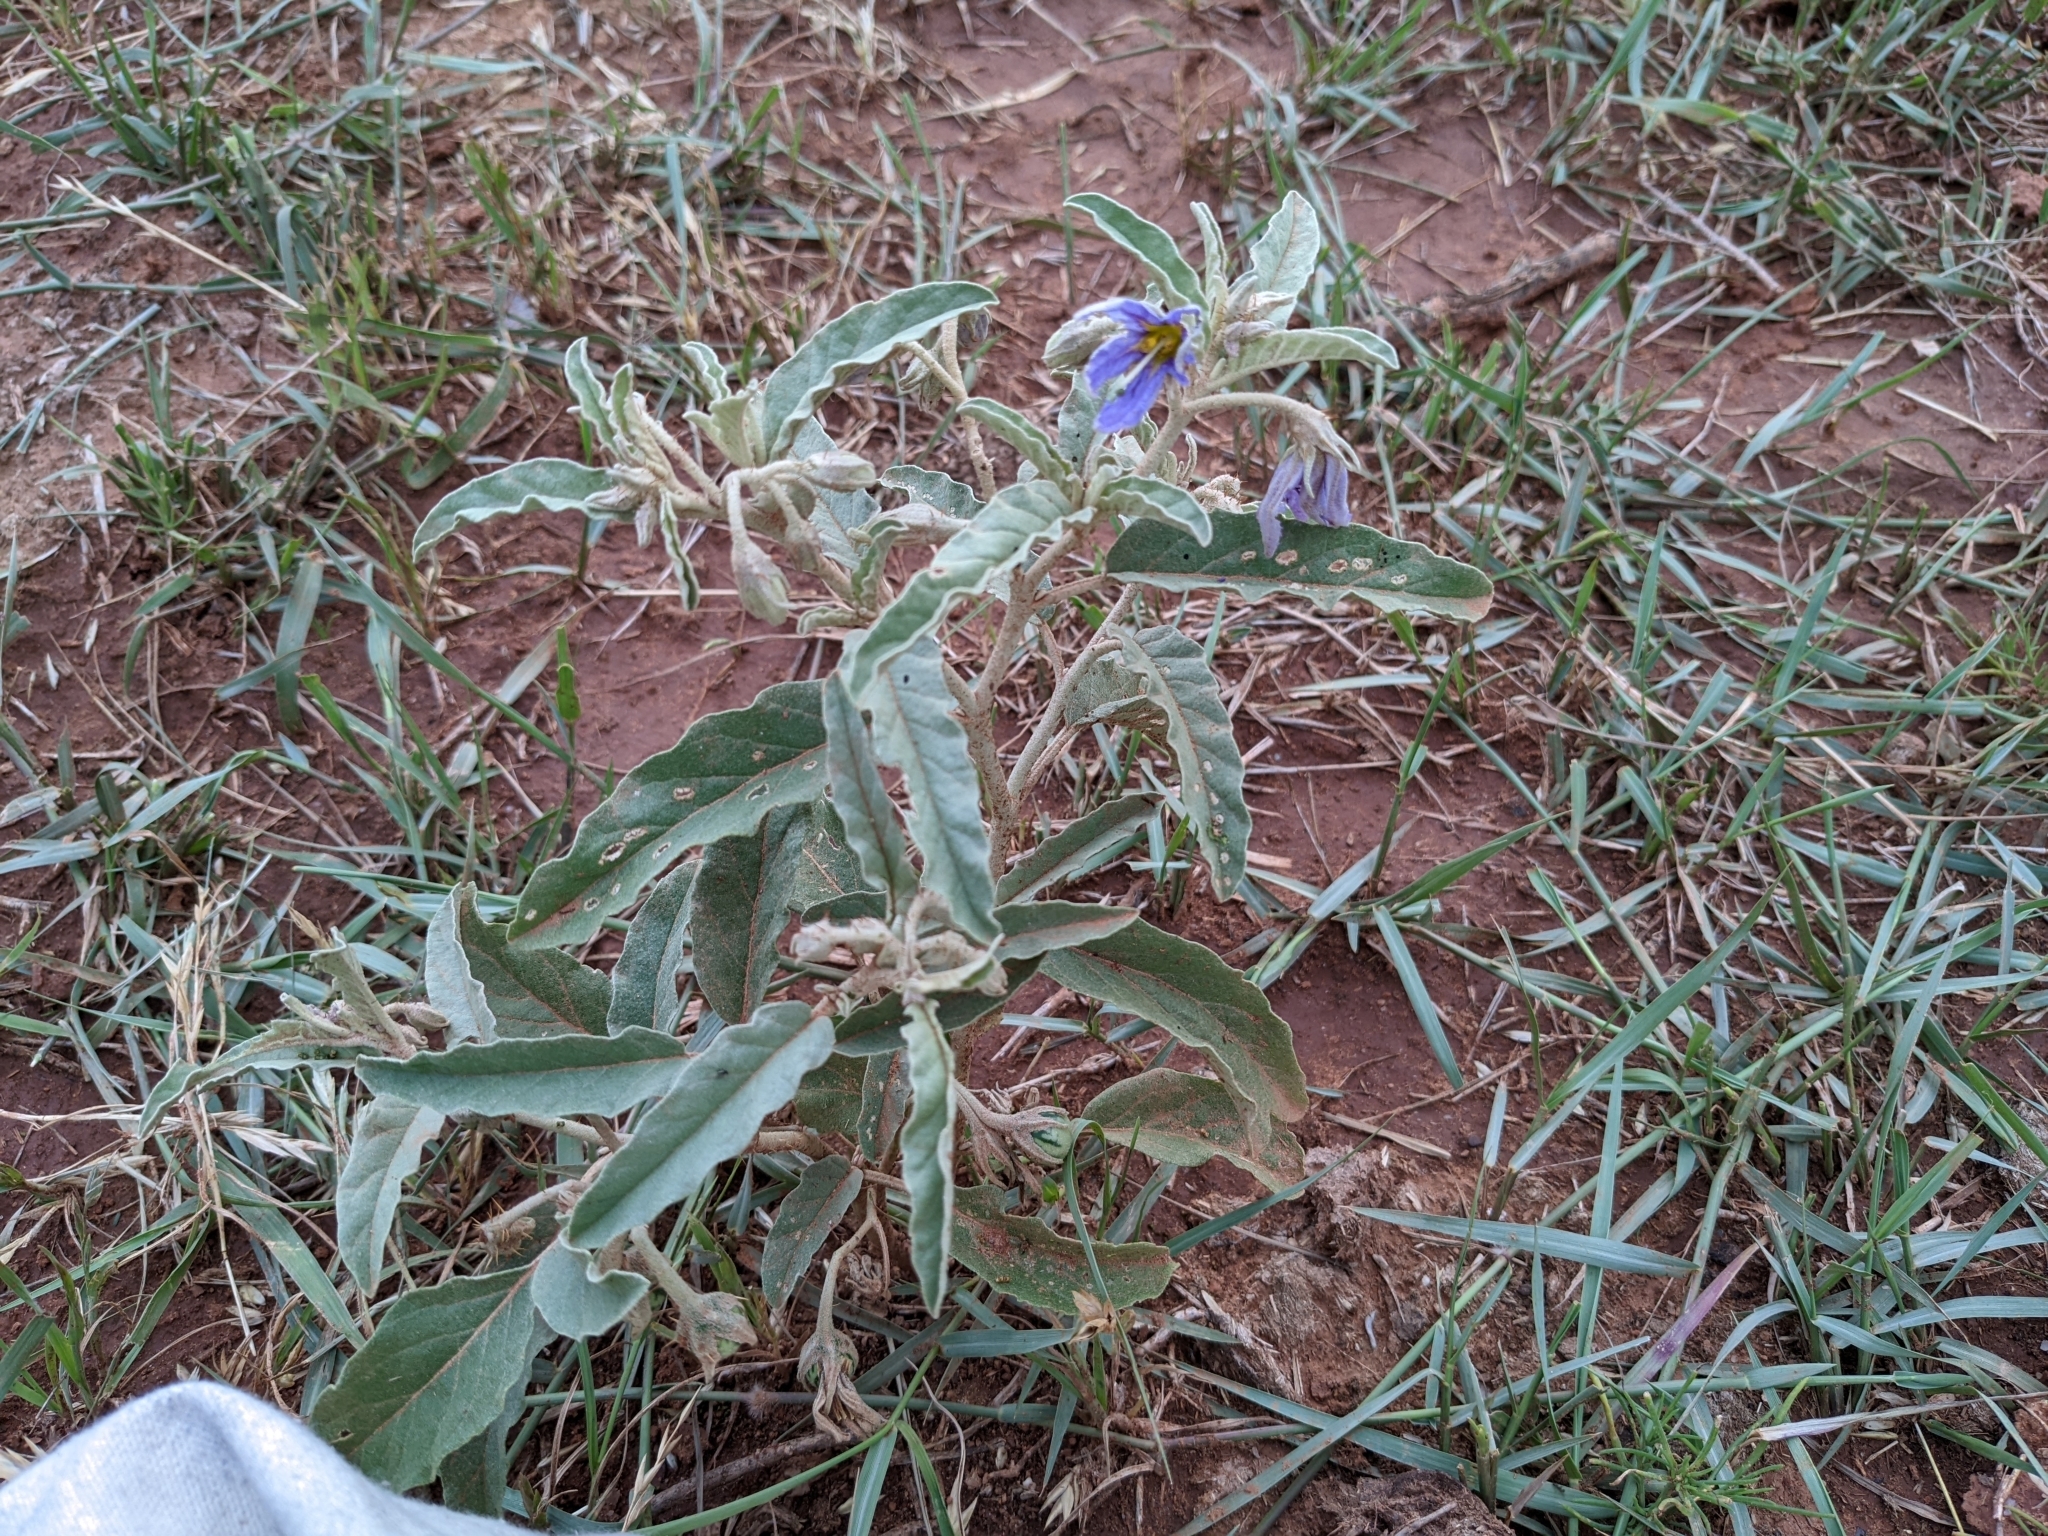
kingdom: Plantae
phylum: Tracheophyta
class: Magnoliopsida
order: Solanales
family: Solanaceae
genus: Solanum
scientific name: Solanum elaeagnifolium
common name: Silverleaf nightshade
